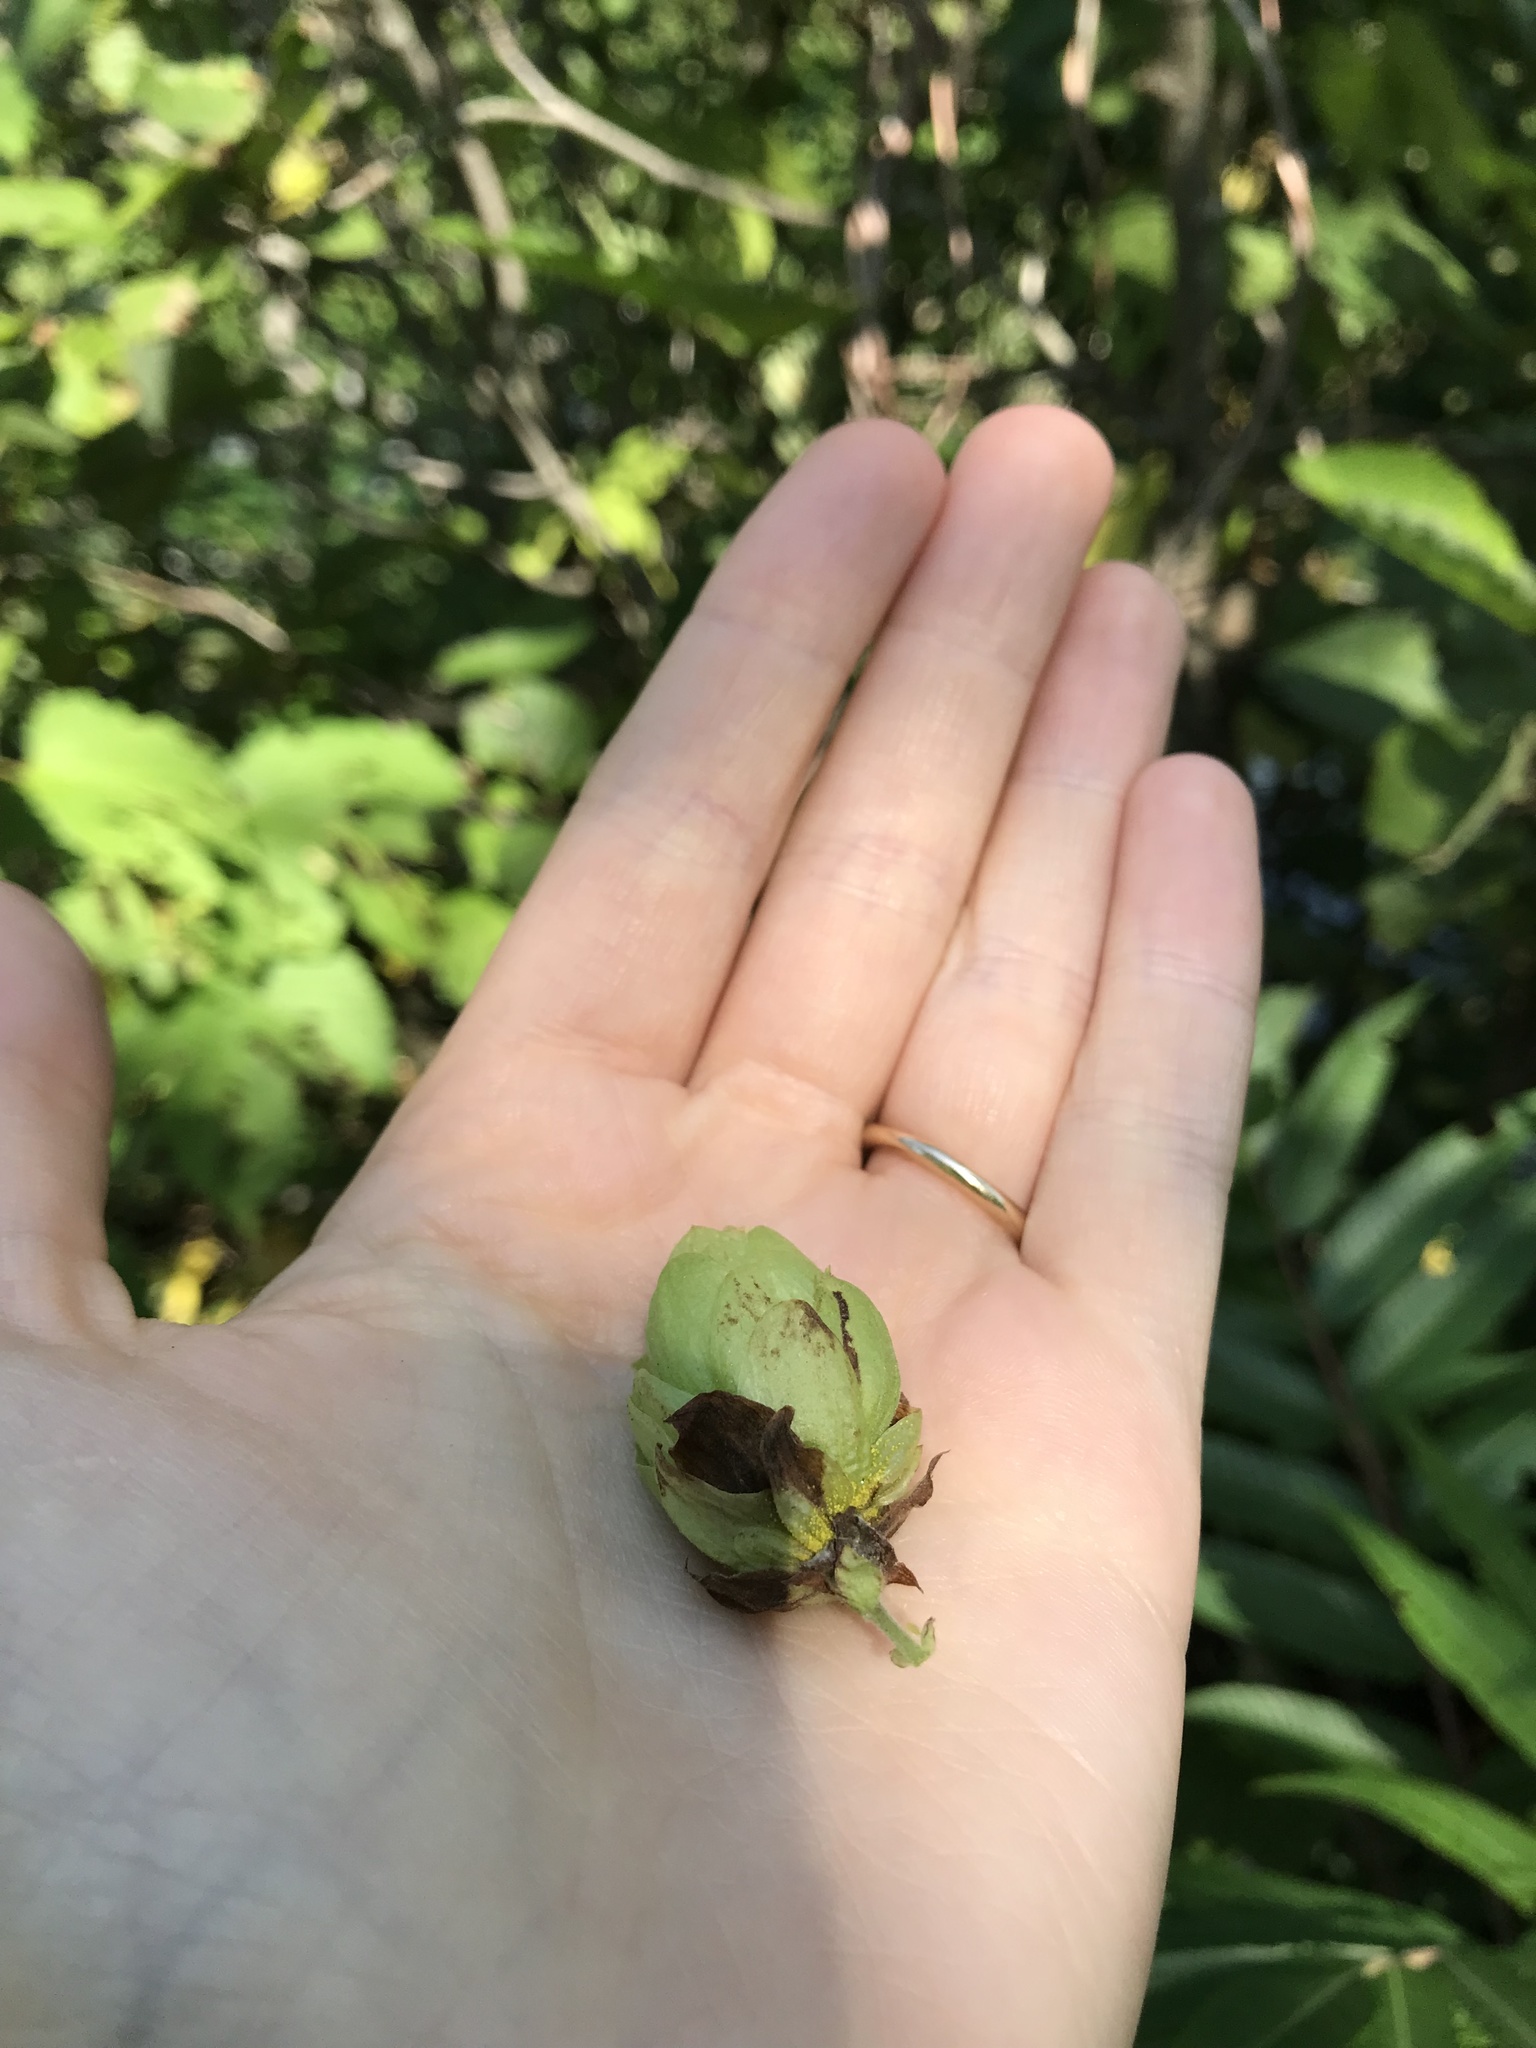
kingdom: Plantae
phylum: Tracheophyta
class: Magnoliopsida
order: Rosales
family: Cannabaceae
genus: Humulus
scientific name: Humulus lupulus
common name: Hop
